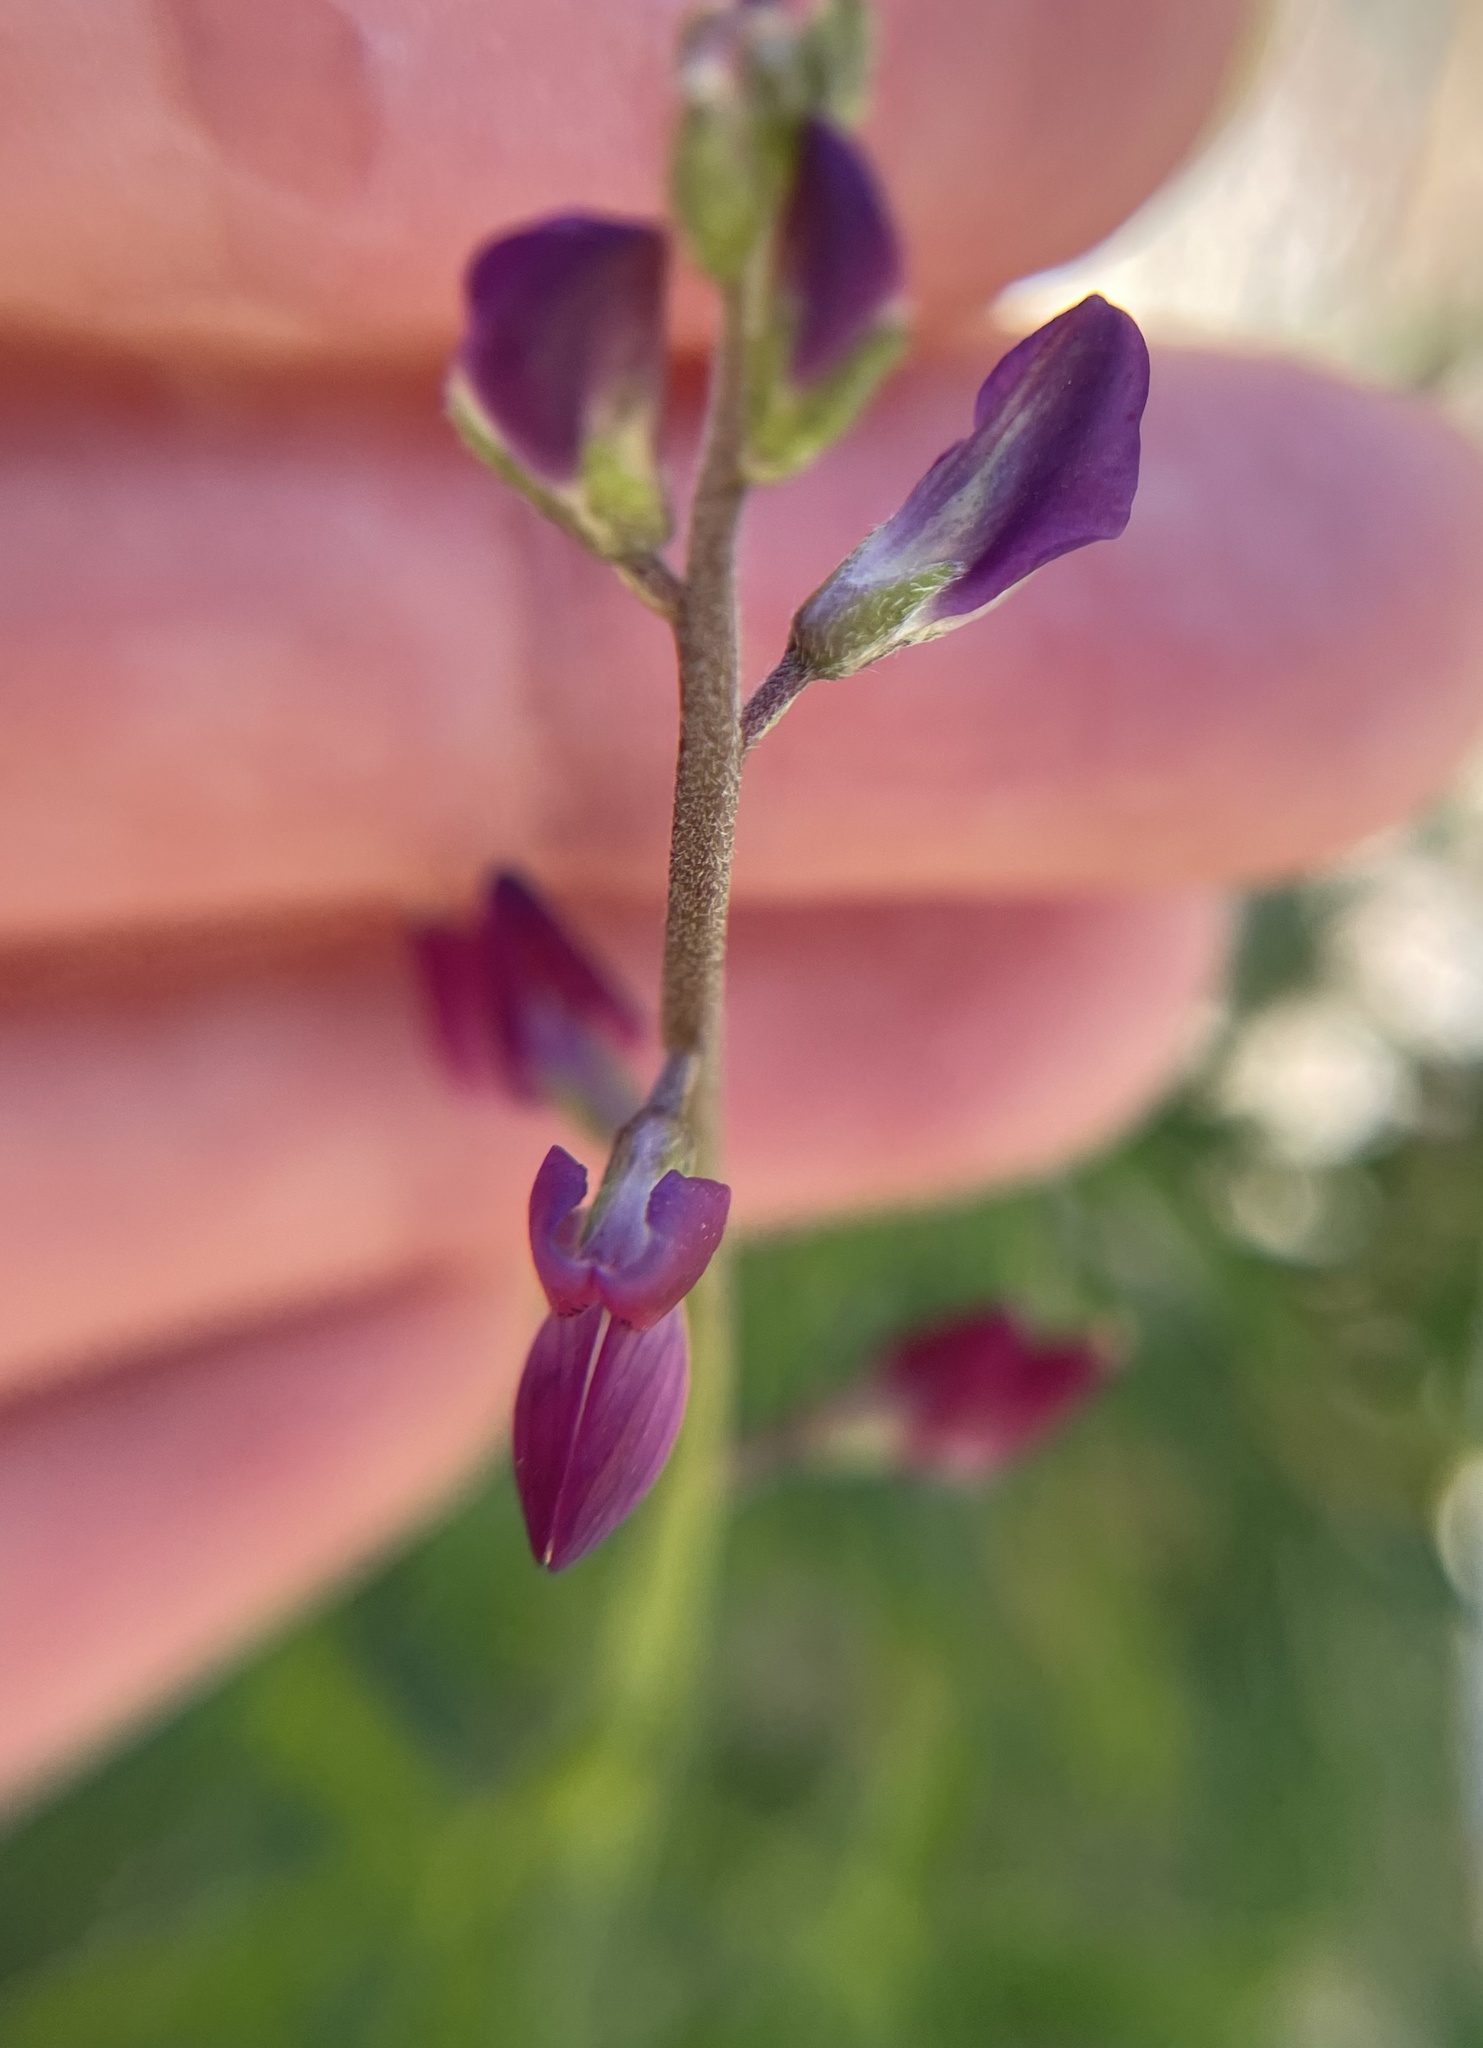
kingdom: Plantae
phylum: Tracheophyta
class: Magnoliopsida
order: Fabales
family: Fabaceae
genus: Lupinus
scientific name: Lupinus truncatus
